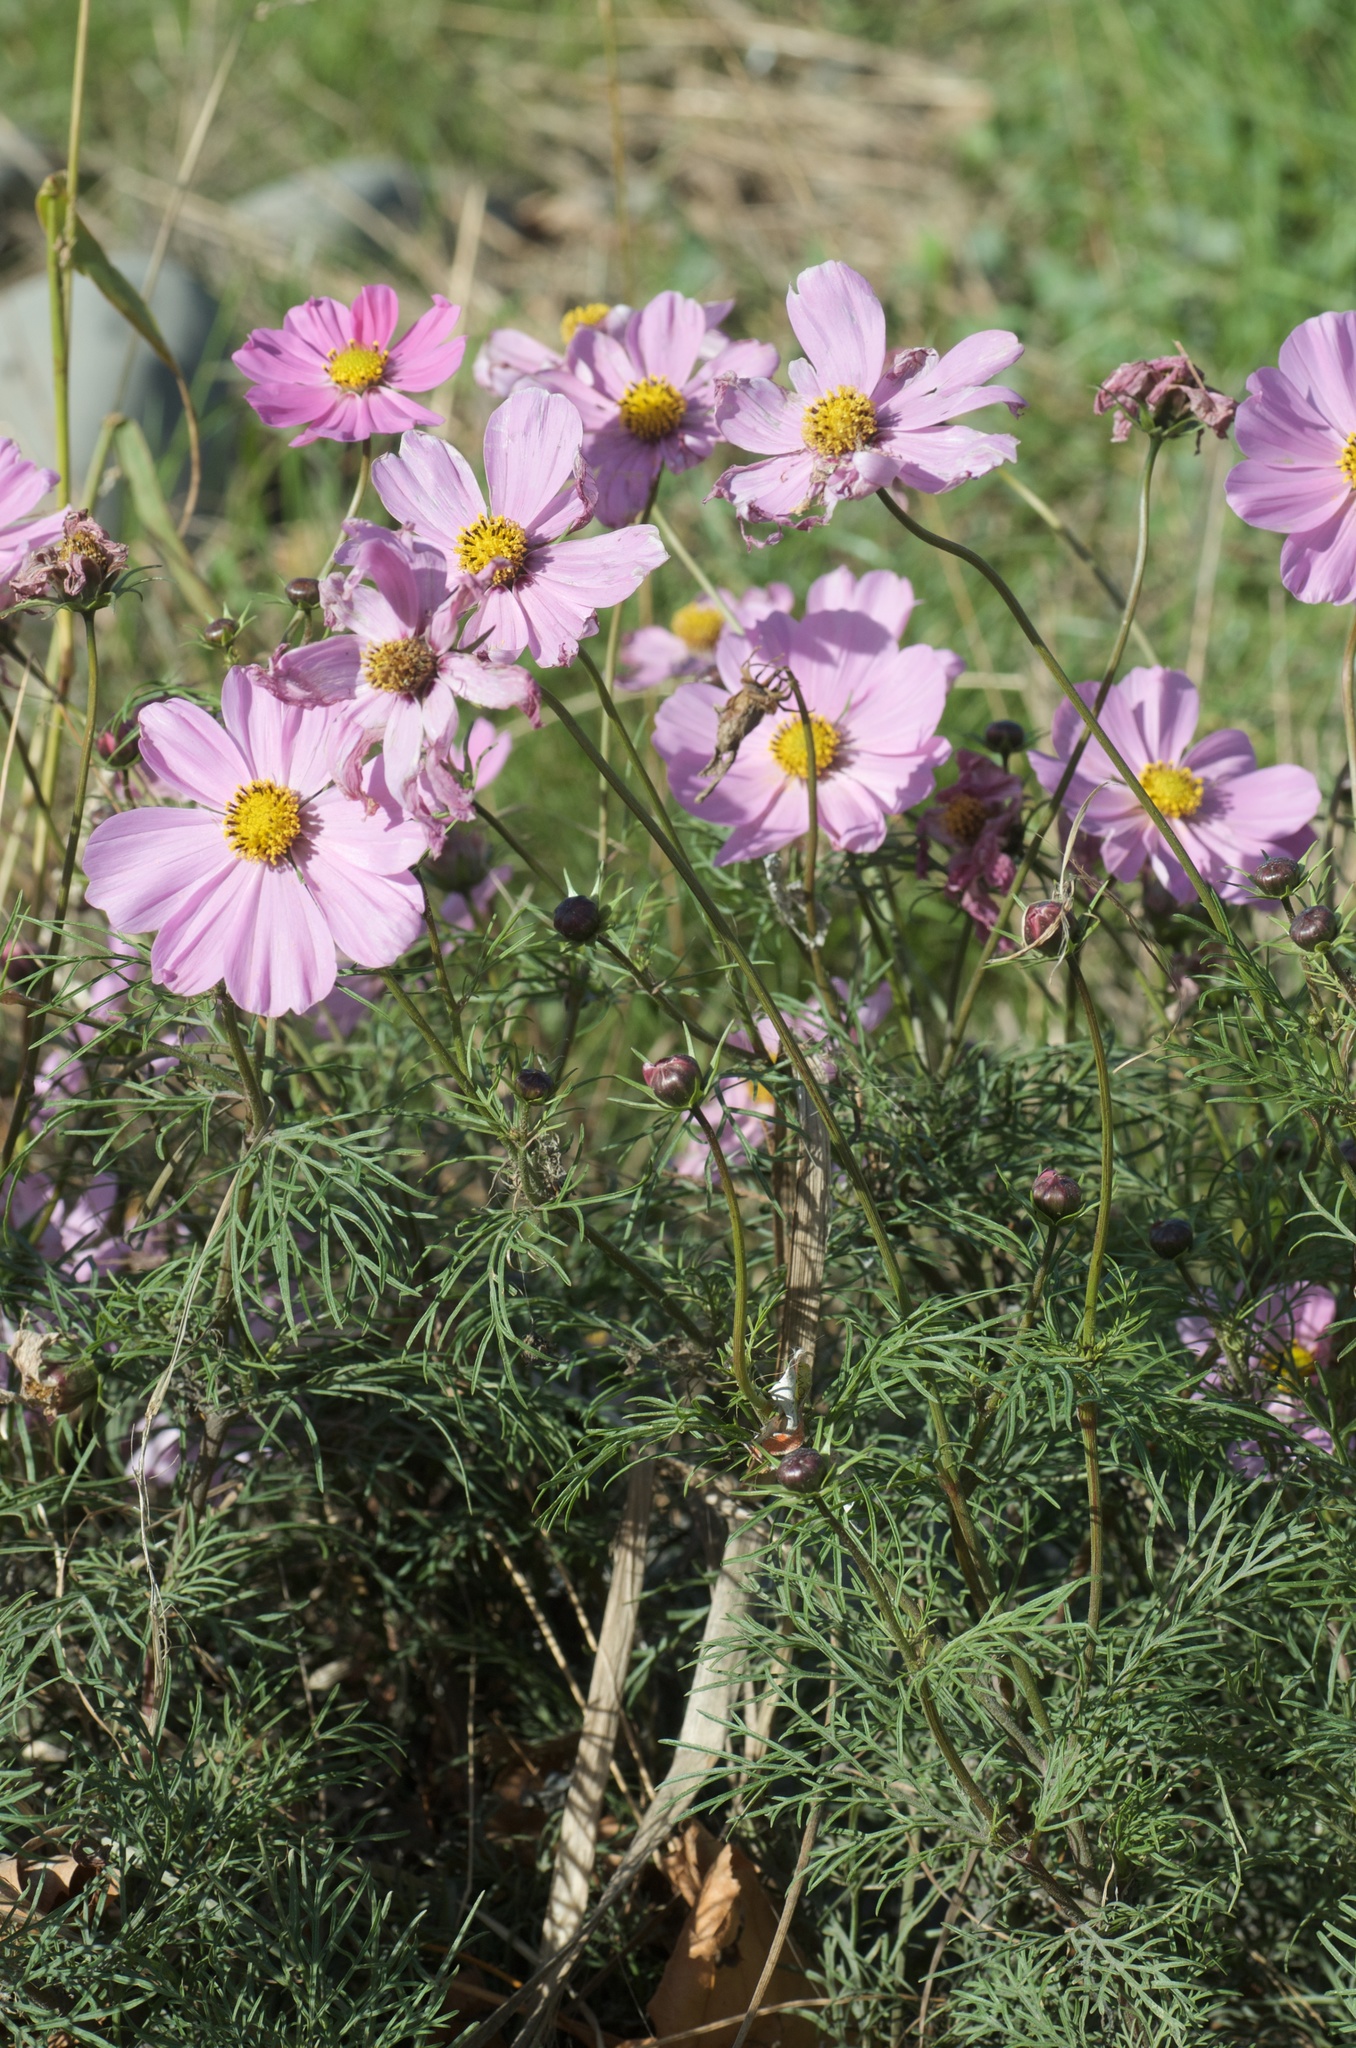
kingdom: Plantae
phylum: Tracheophyta
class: Magnoliopsida
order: Asterales
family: Asteraceae
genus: Cosmos
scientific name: Cosmos bipinnatus
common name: Garden cosmos
